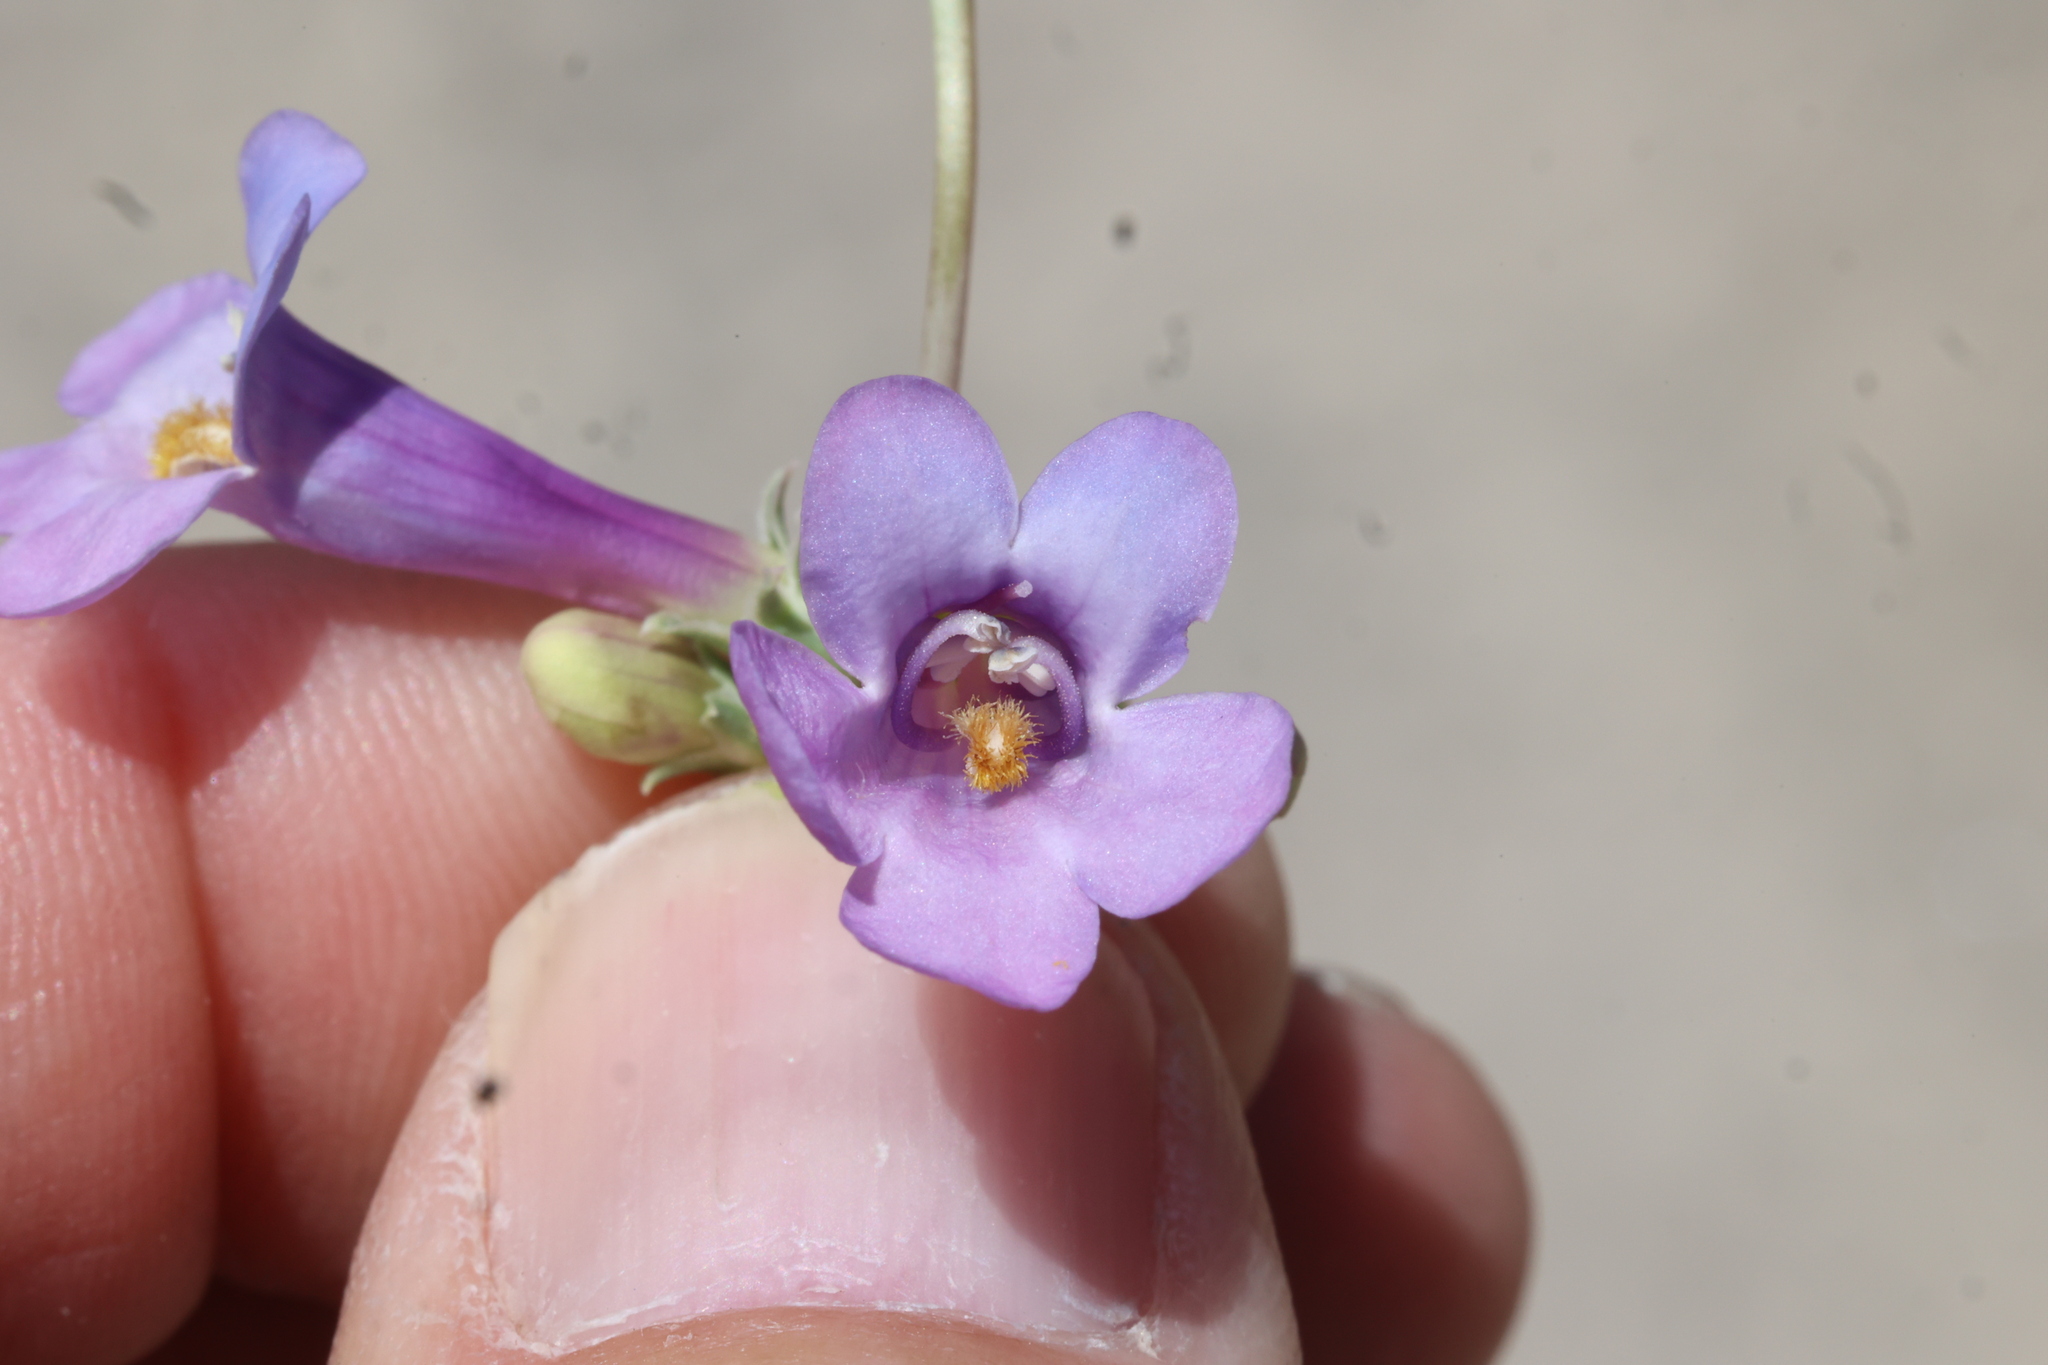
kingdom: Plantae
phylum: Tracheophyta
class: Magnoliopsida
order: Lamiales
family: Plantaginaceae
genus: Penstemon
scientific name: Penstemon secundiflorus
